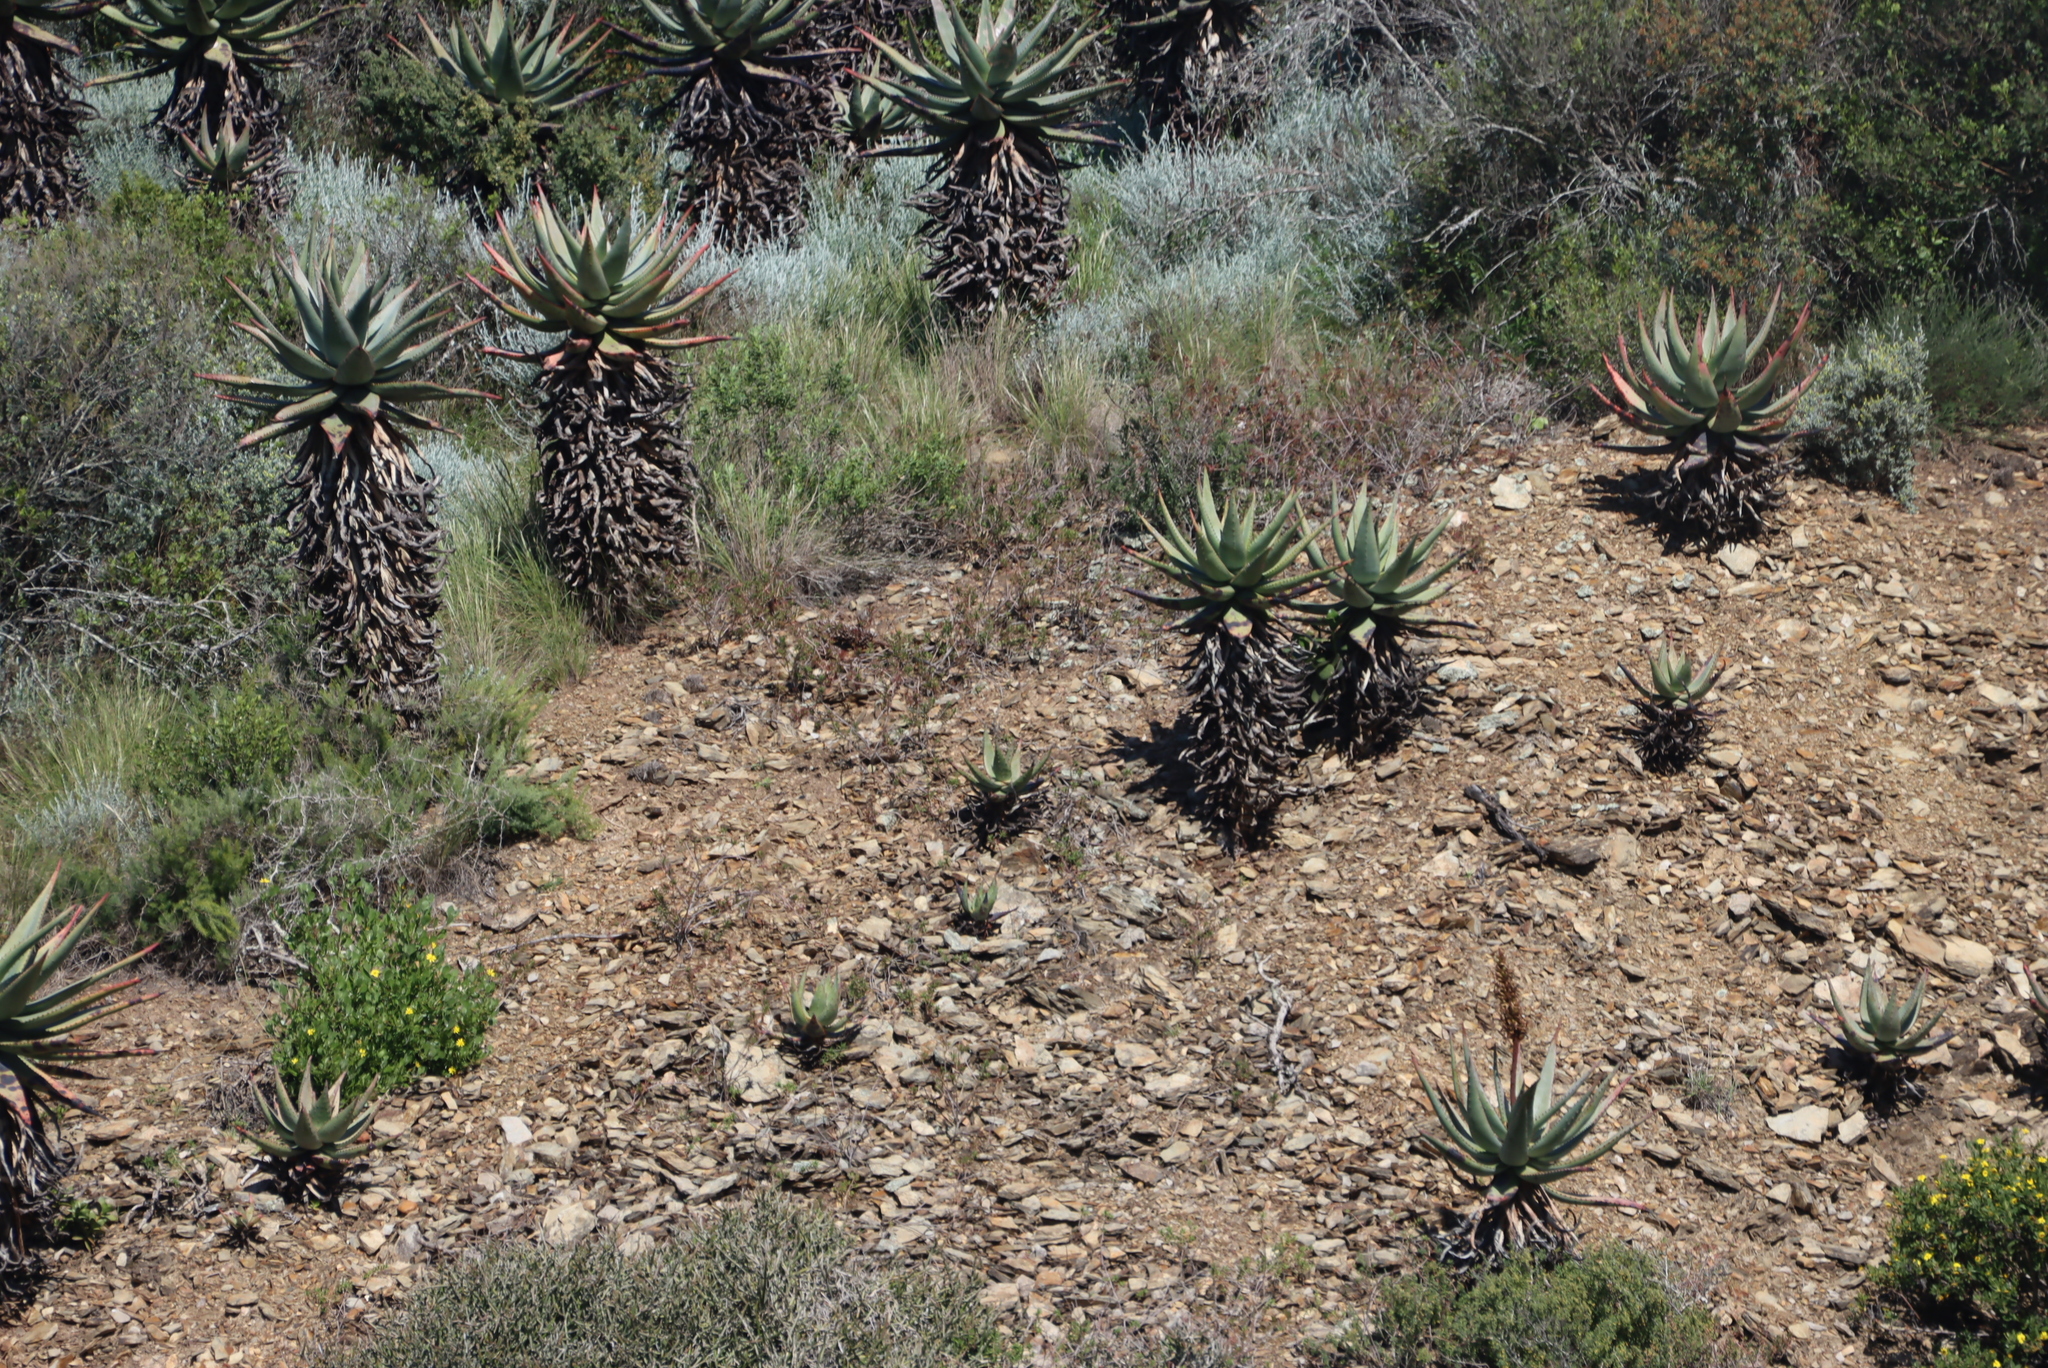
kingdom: Plantae
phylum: Tracheophyta
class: Liliopsida
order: Asparagales
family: Asphodelaceae
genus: Aloe
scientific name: Aloe ferox
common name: Bitter aloe
